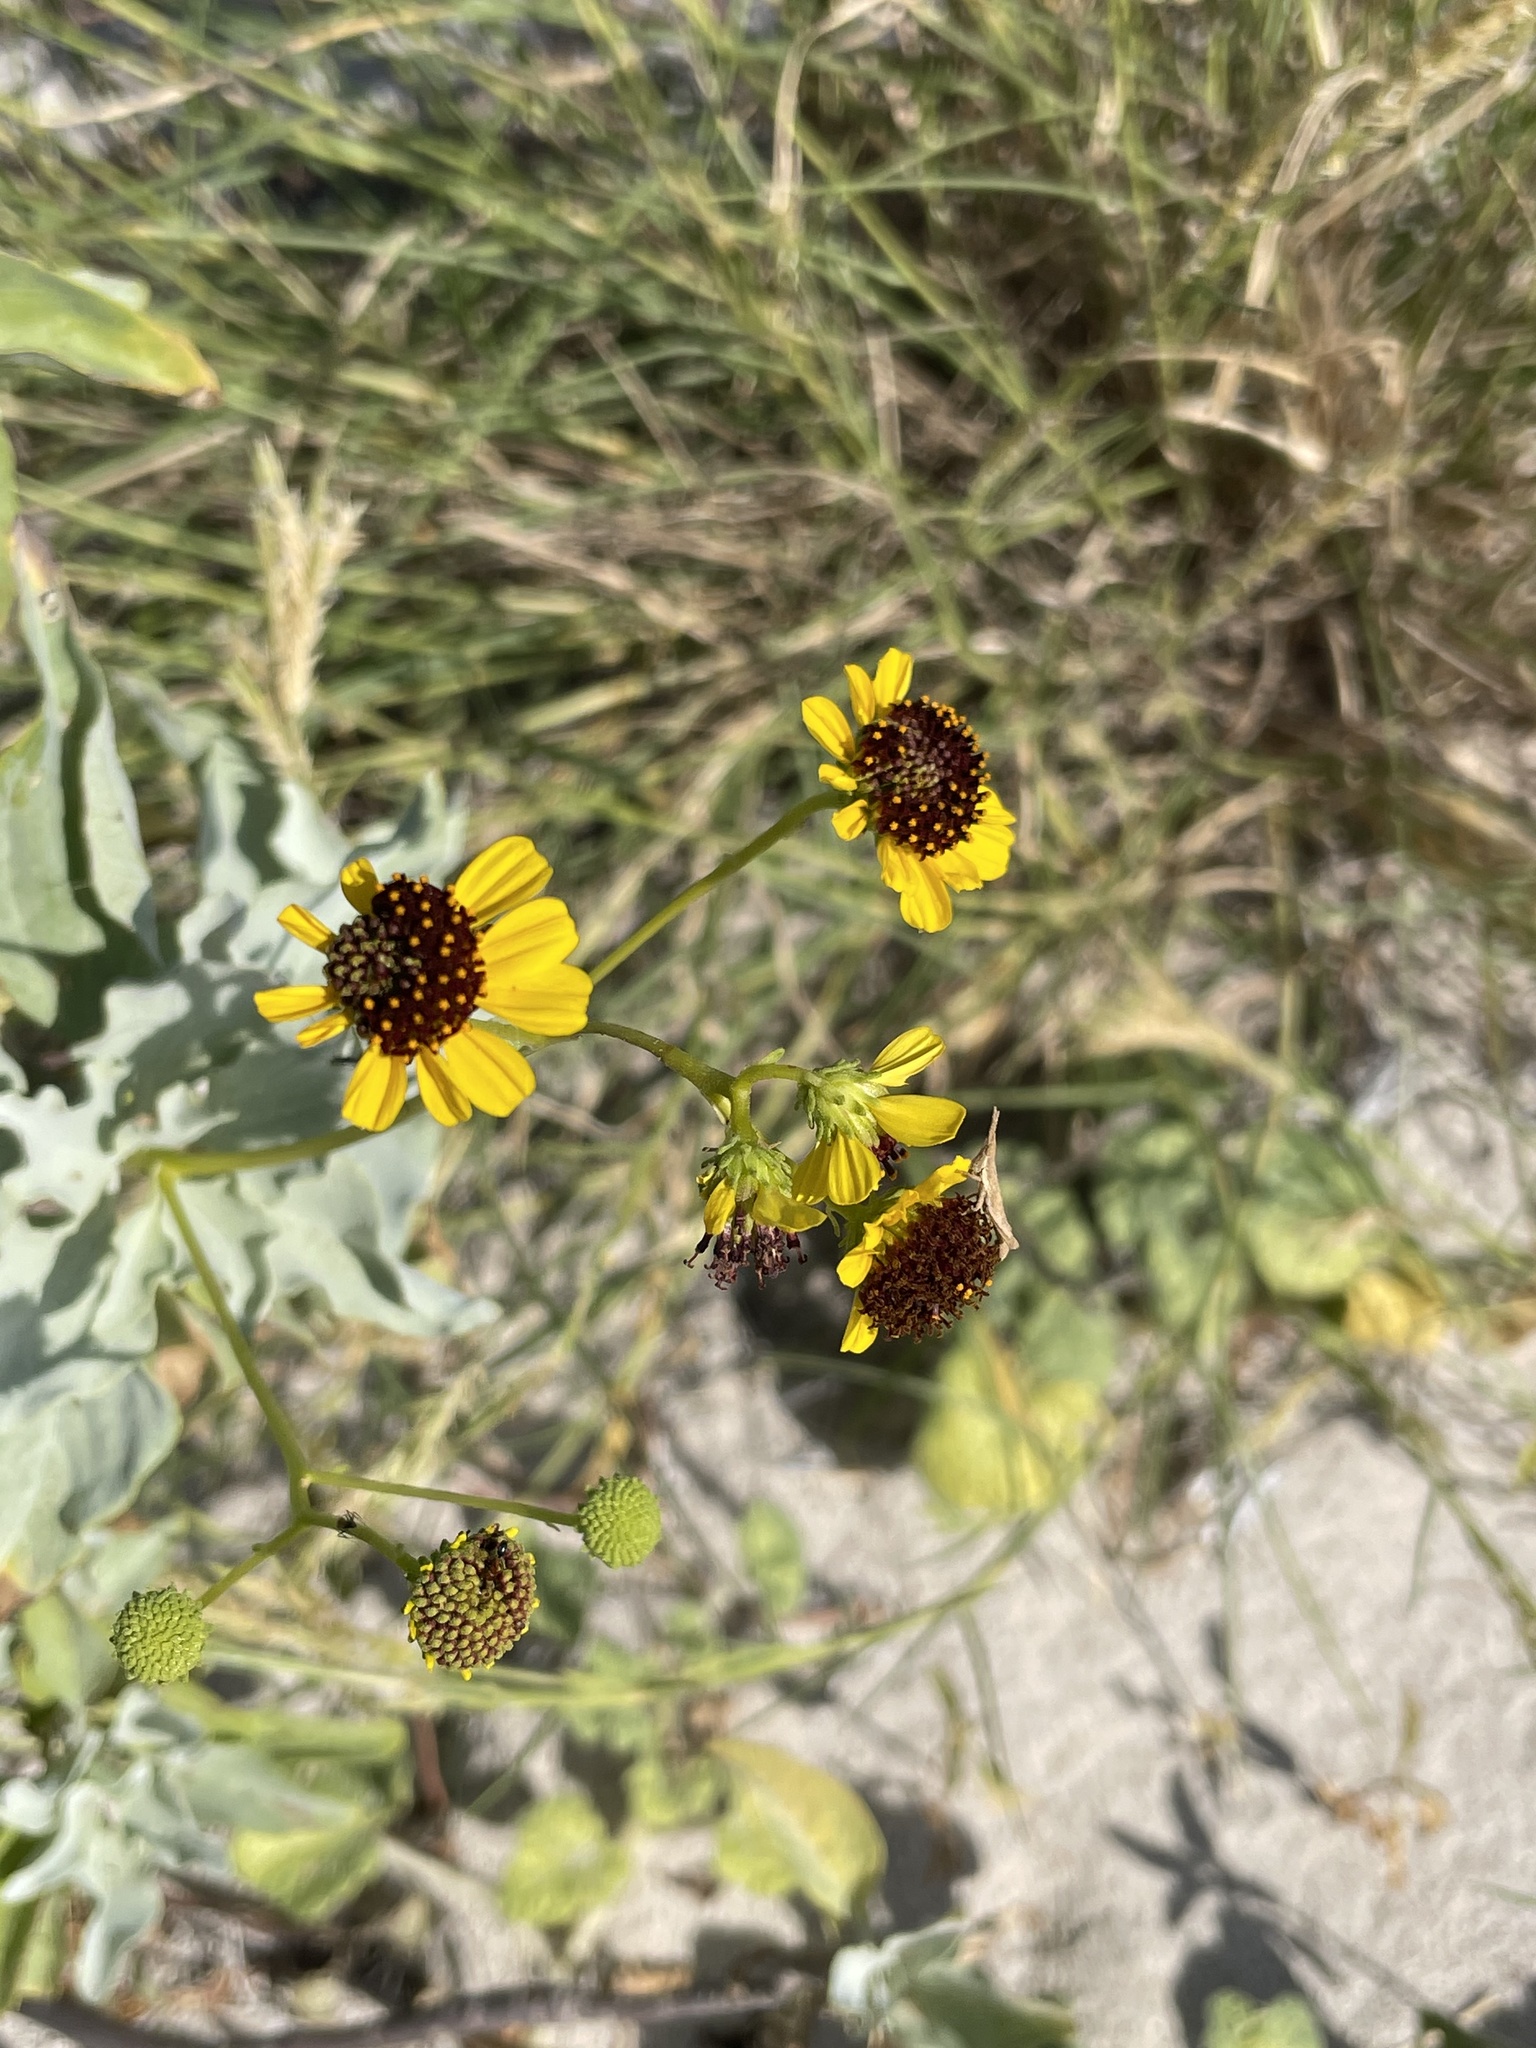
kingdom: Plantae
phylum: Tracheophyta
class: Magnoliopsida
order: Asterales
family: Asteraceae
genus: Encelia
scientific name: Encelia farinosa
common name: Brittlebush
